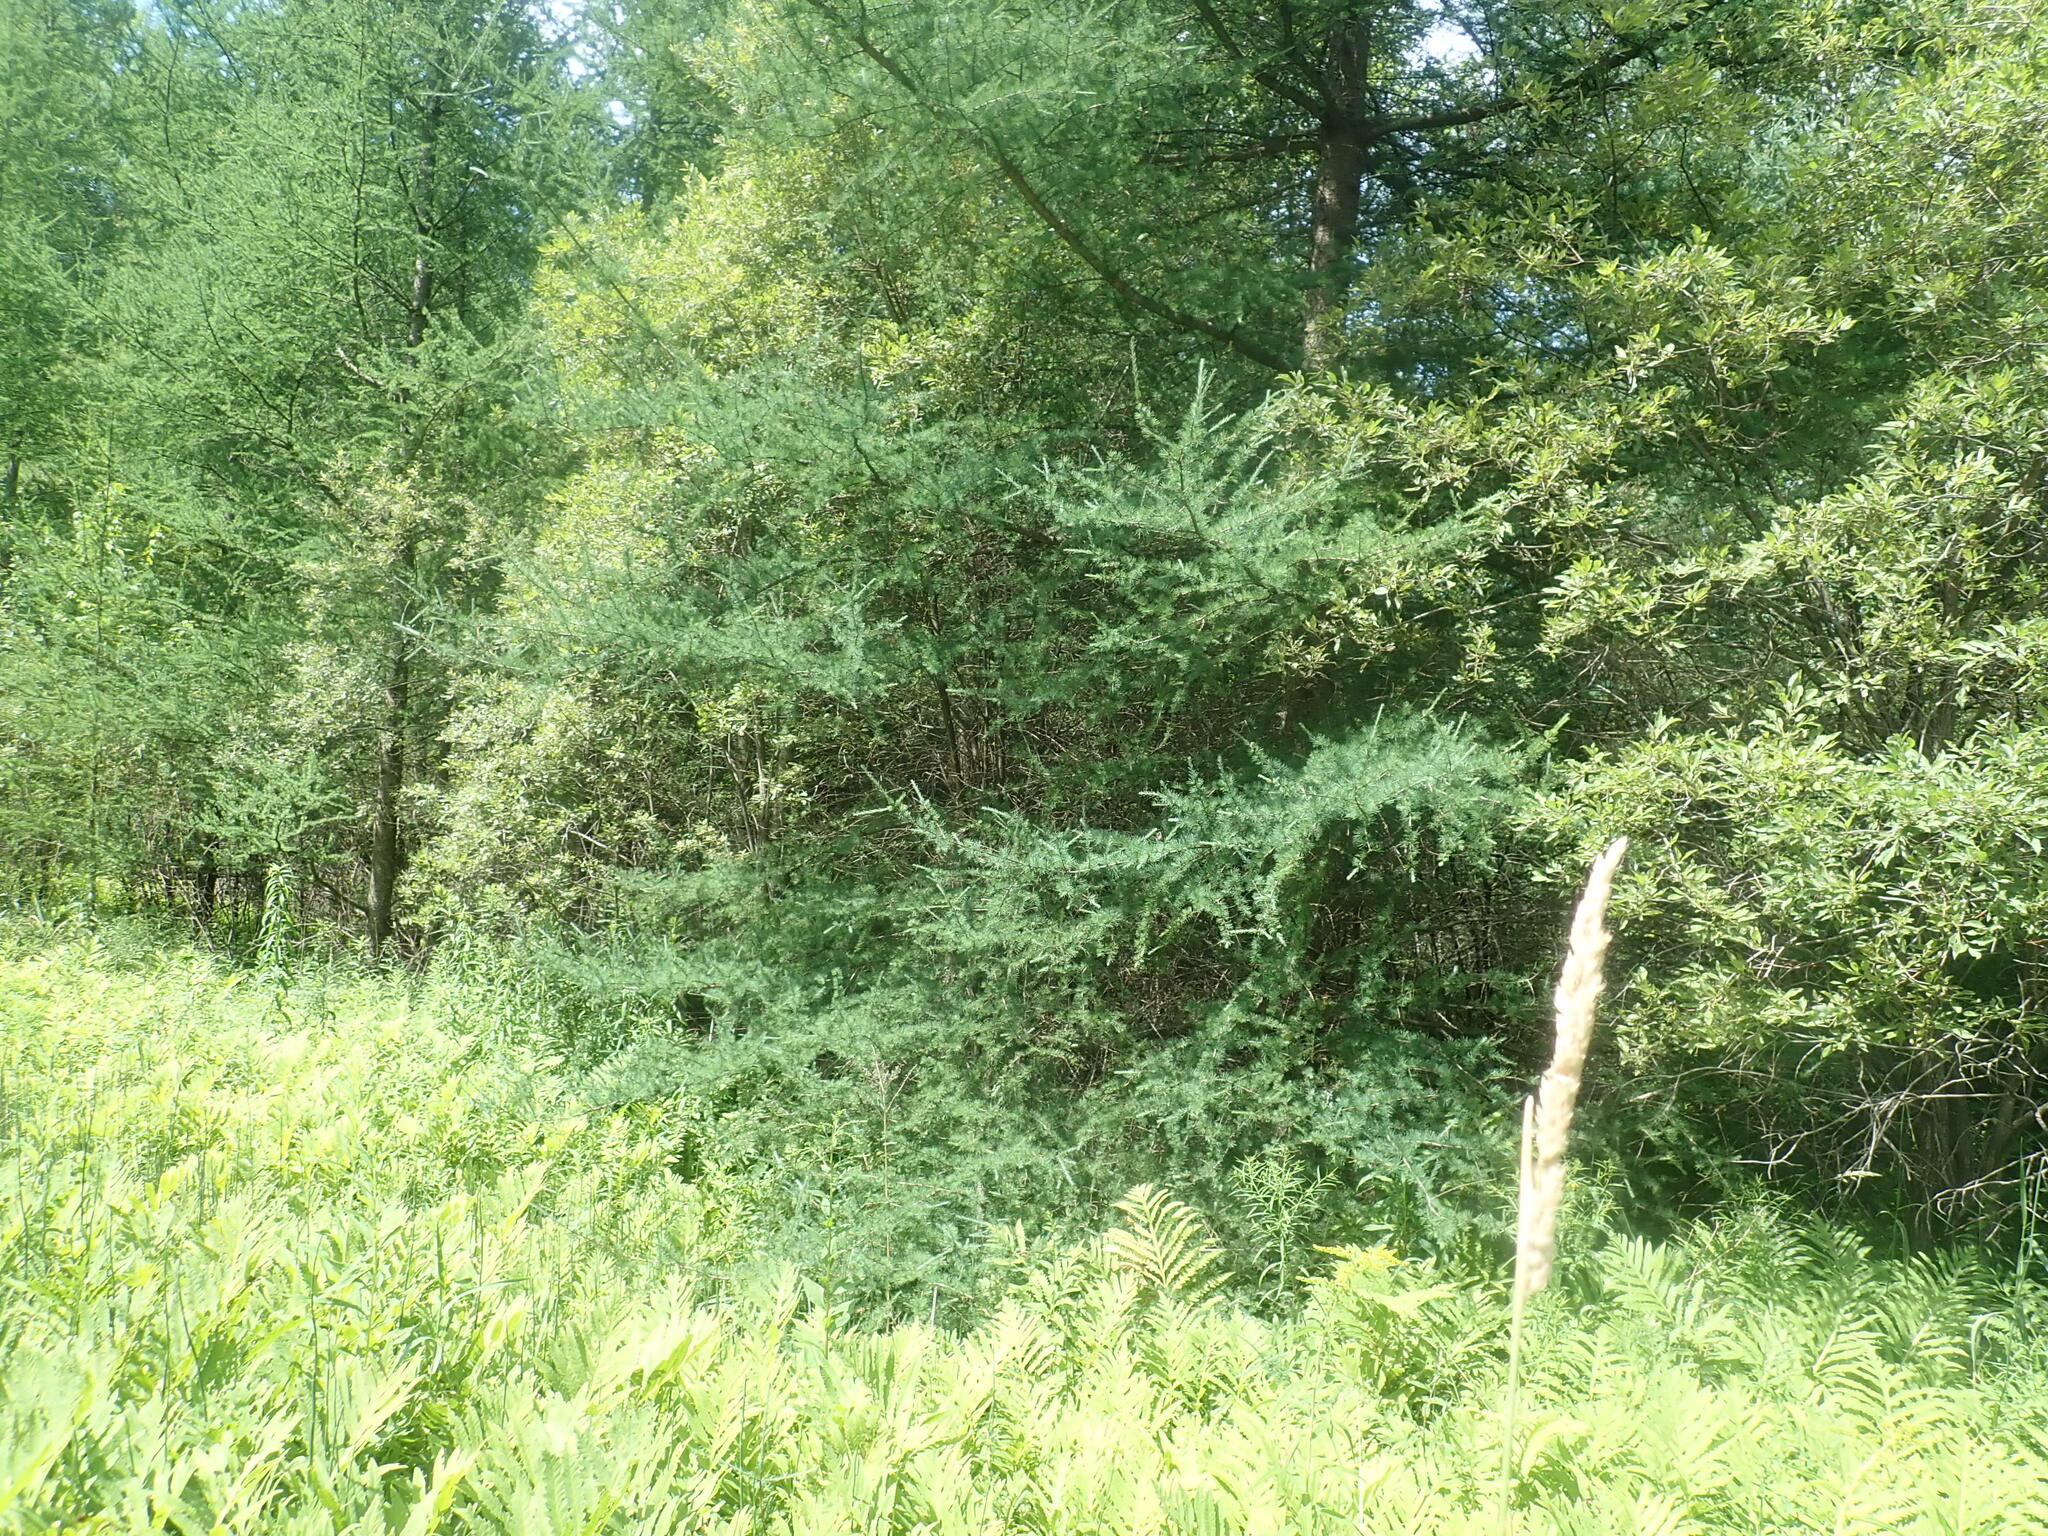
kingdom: Plantae
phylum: Tracheophyta
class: Pinopsida
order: Pinales
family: Pinaceae
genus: Larix
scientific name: Larix laricina
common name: American larch
